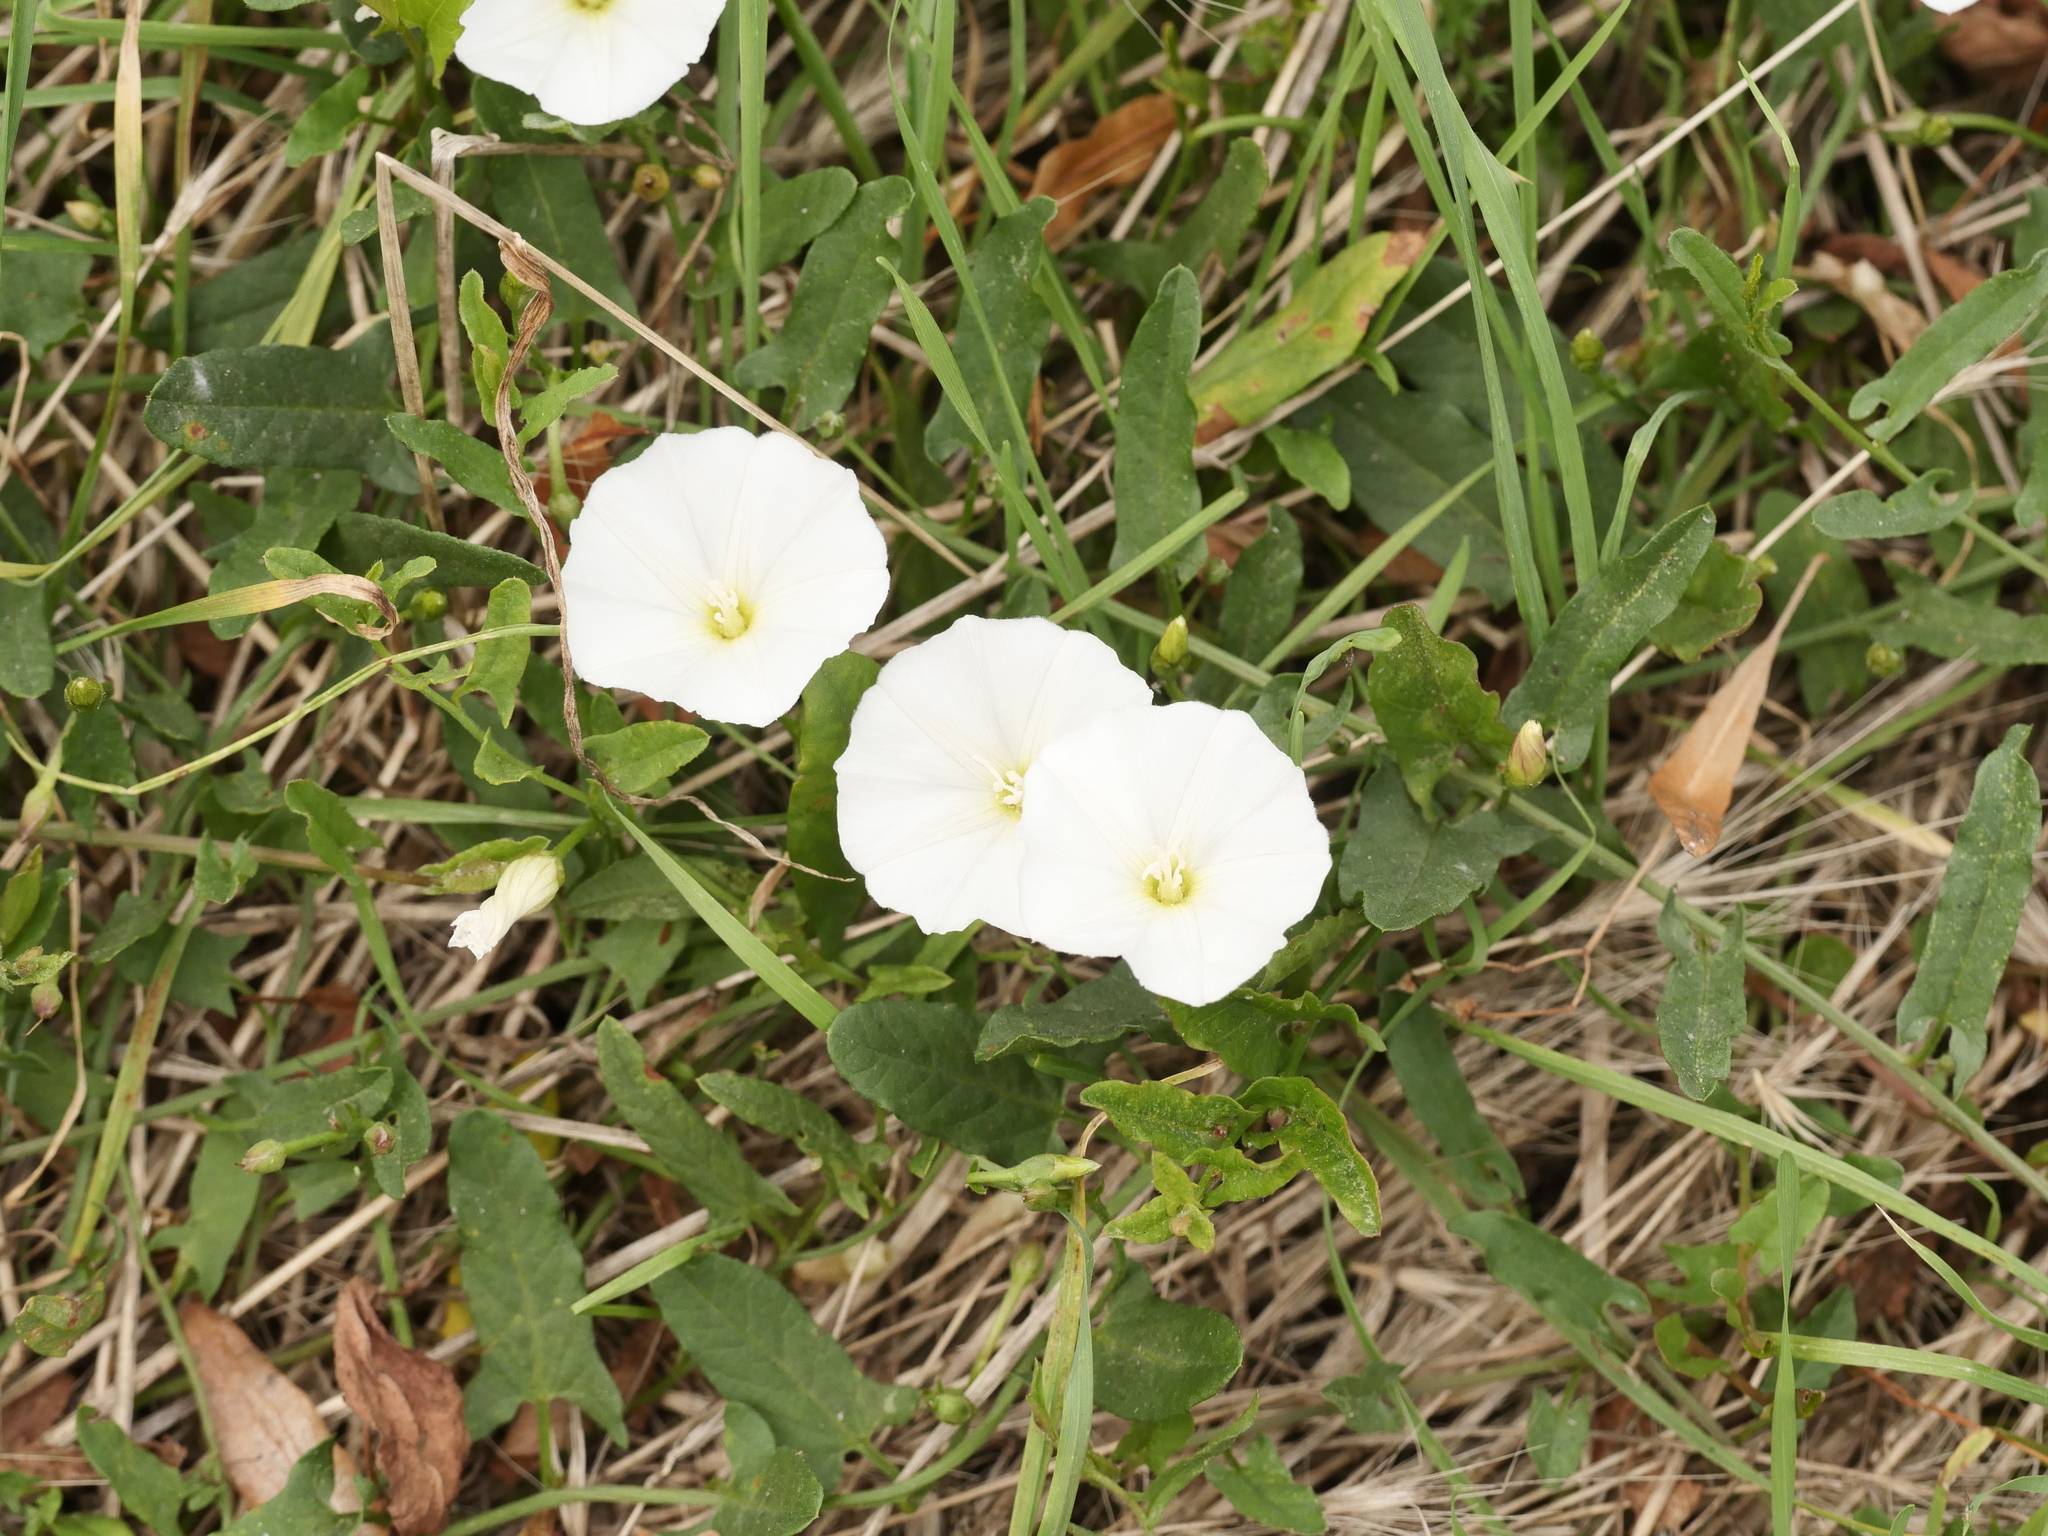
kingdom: Plantae
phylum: Tracheophyta
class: Magnoliopsida
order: Solanales
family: Convolvulaceae
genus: Convolvulus
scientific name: Convolvulus arvensis
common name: Field bindweed
